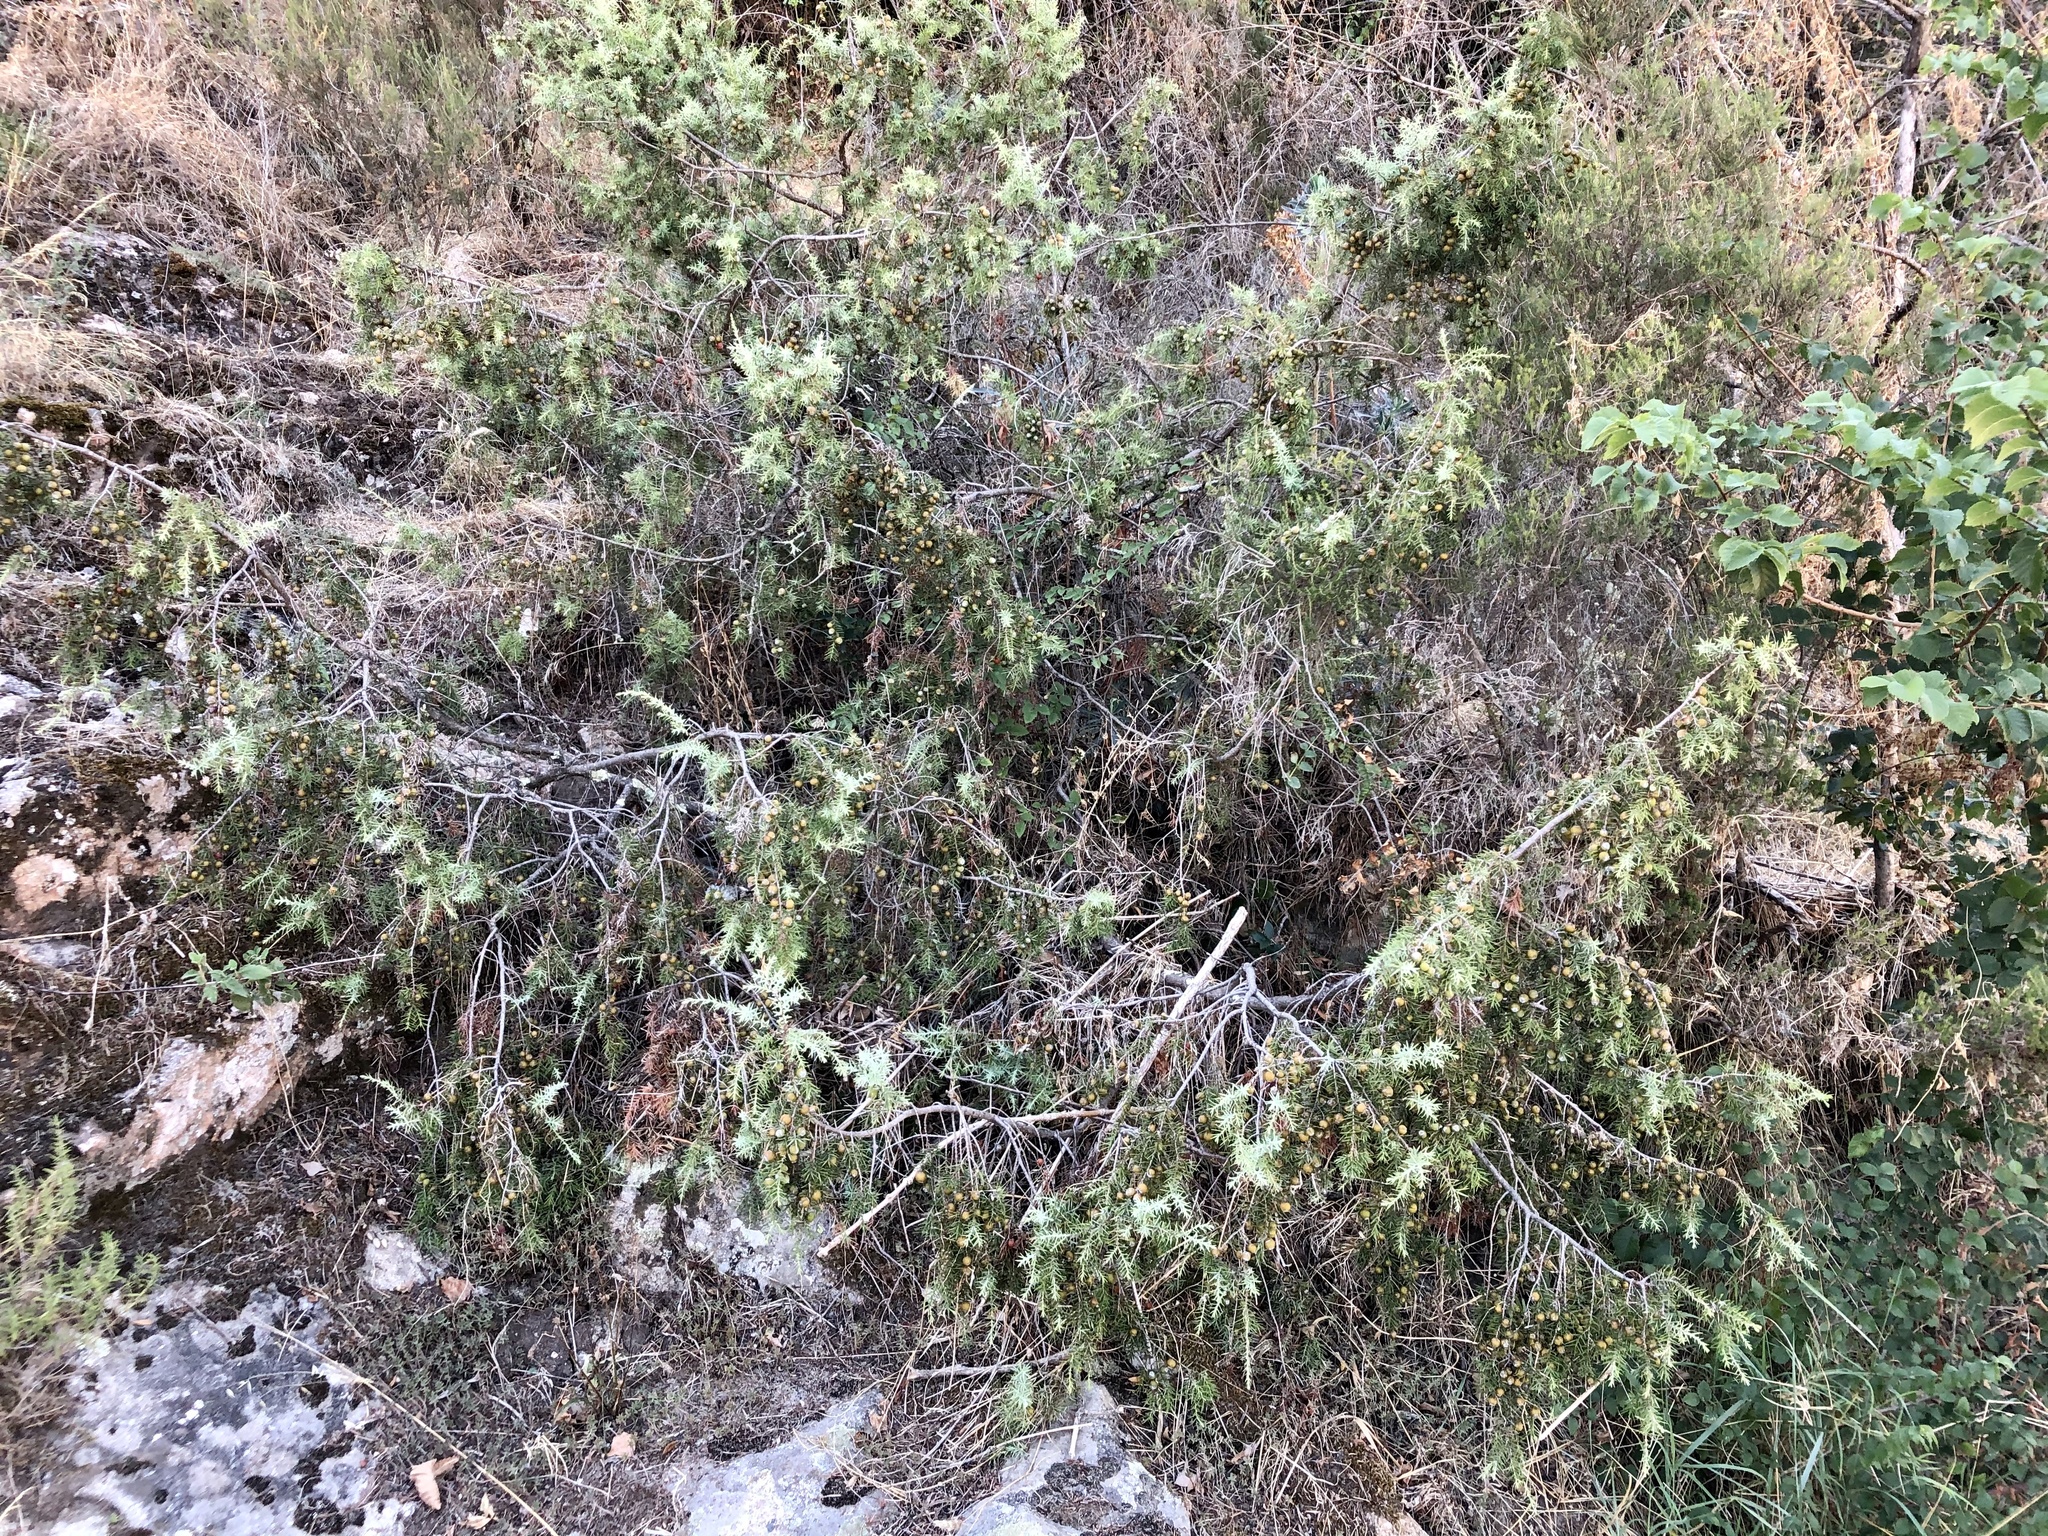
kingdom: Plantae
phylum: Tracheophyta
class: Pinopsida
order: Pinales
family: Cupressaceae
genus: Juniperus
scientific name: Juniperus oxycedrus
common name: Prickly juniper
